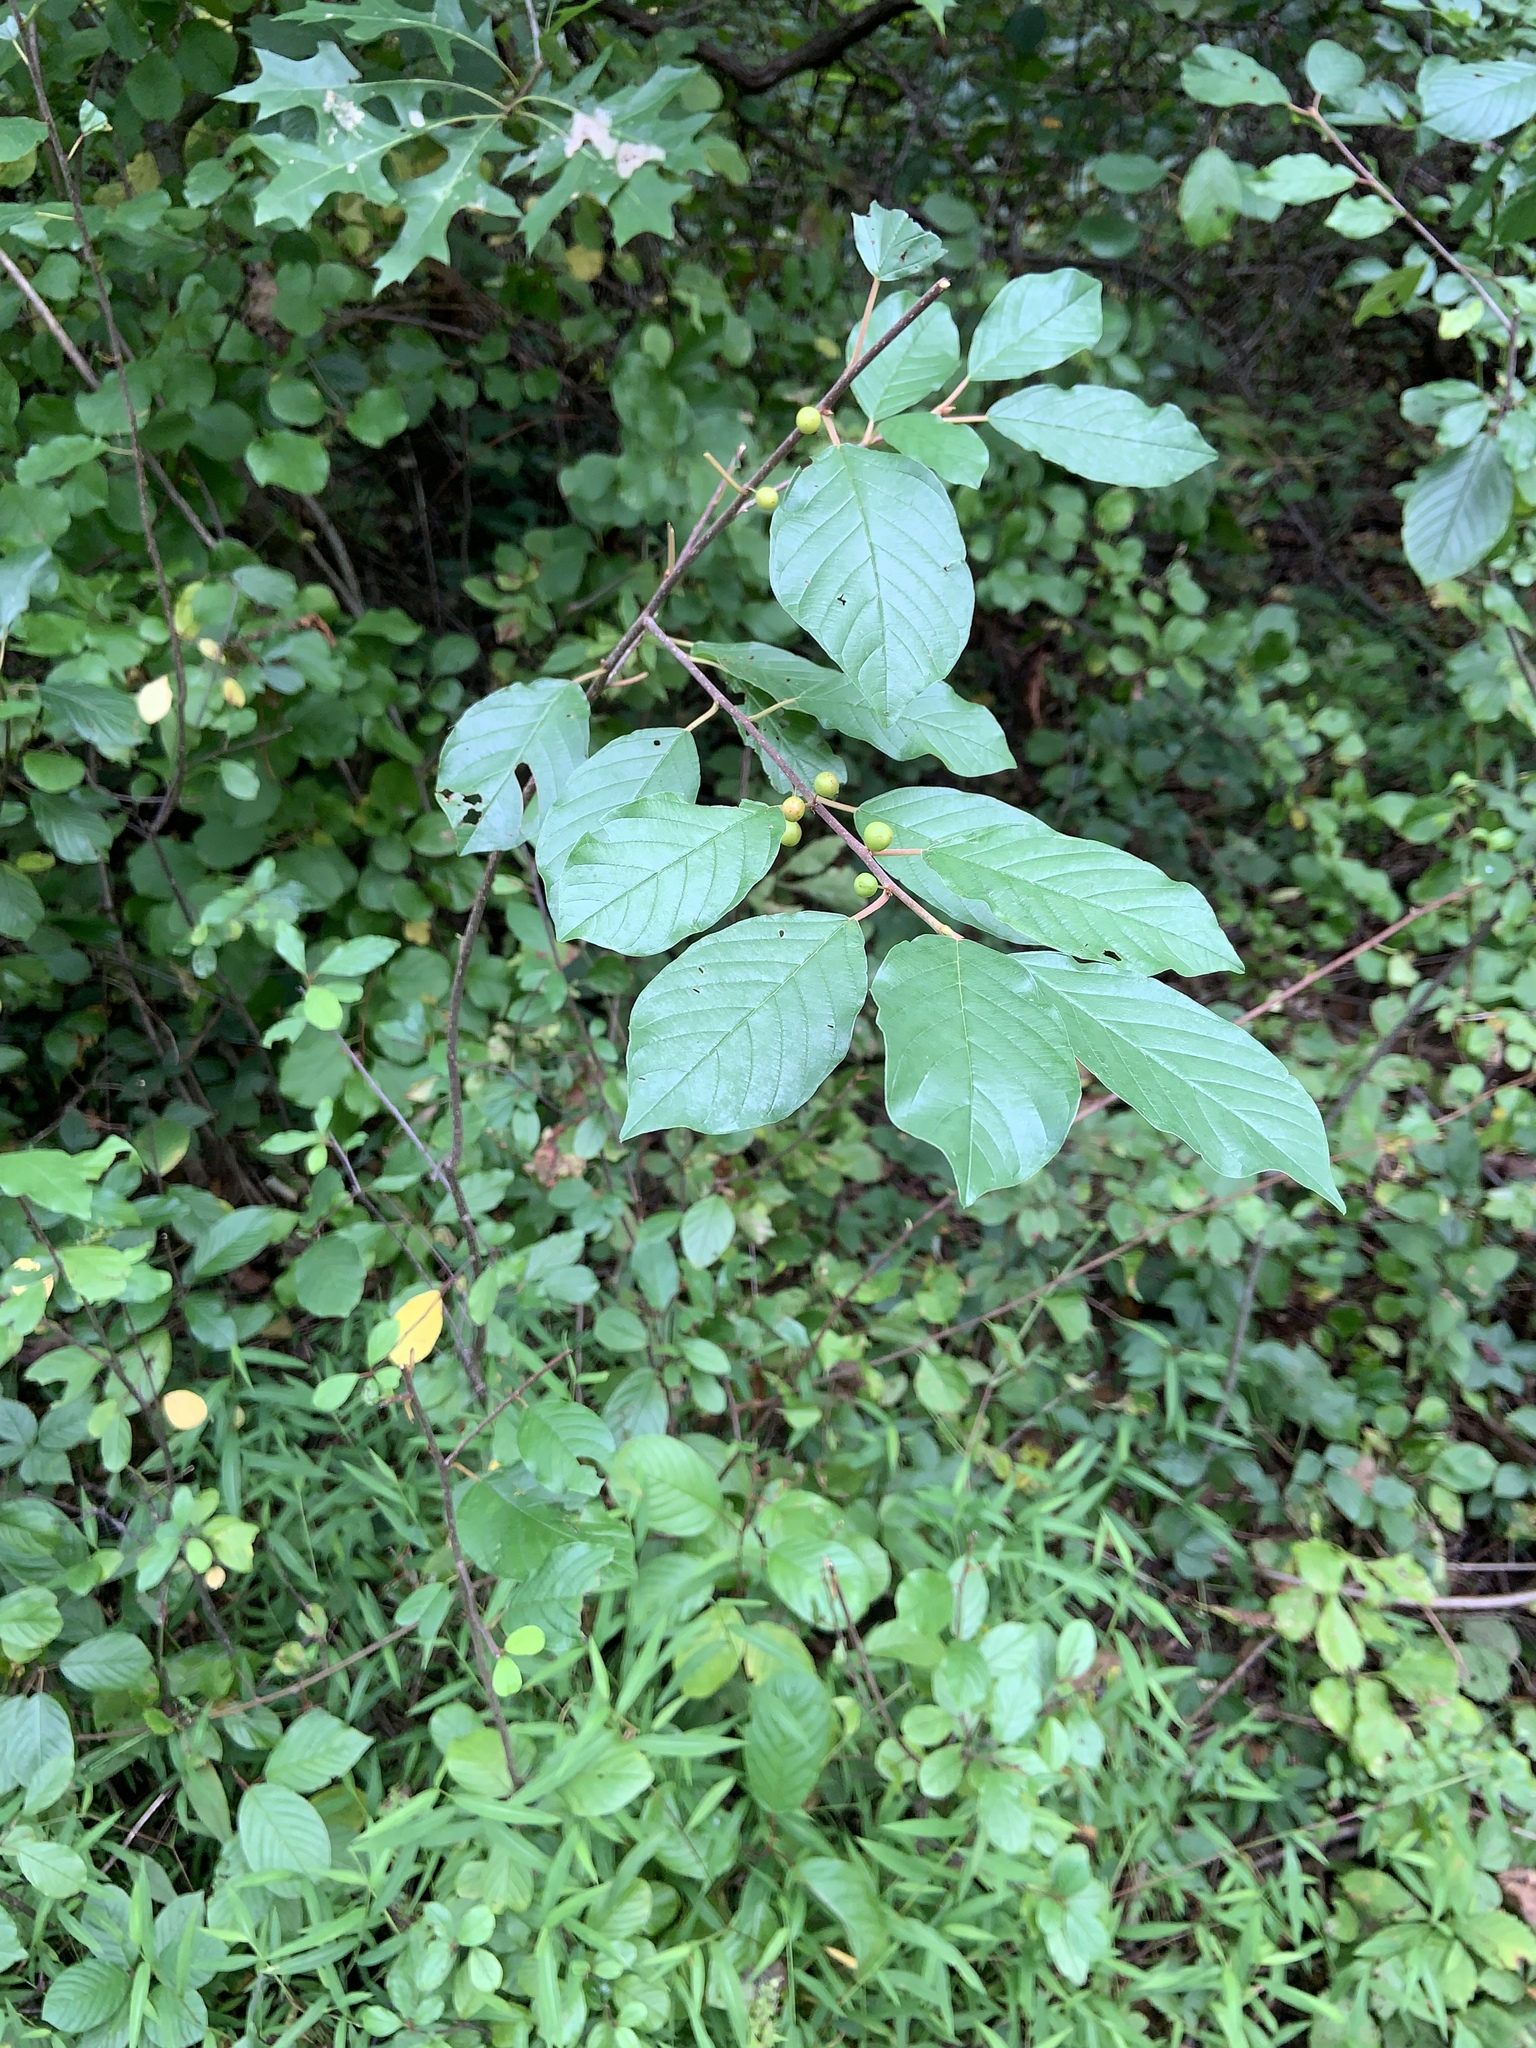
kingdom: Plantae
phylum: Tracheophyta
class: Magnoliopsida
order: Rosales
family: Rhamnaceae
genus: Frangula
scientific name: Frangula alnus
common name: Alder buckthorn
